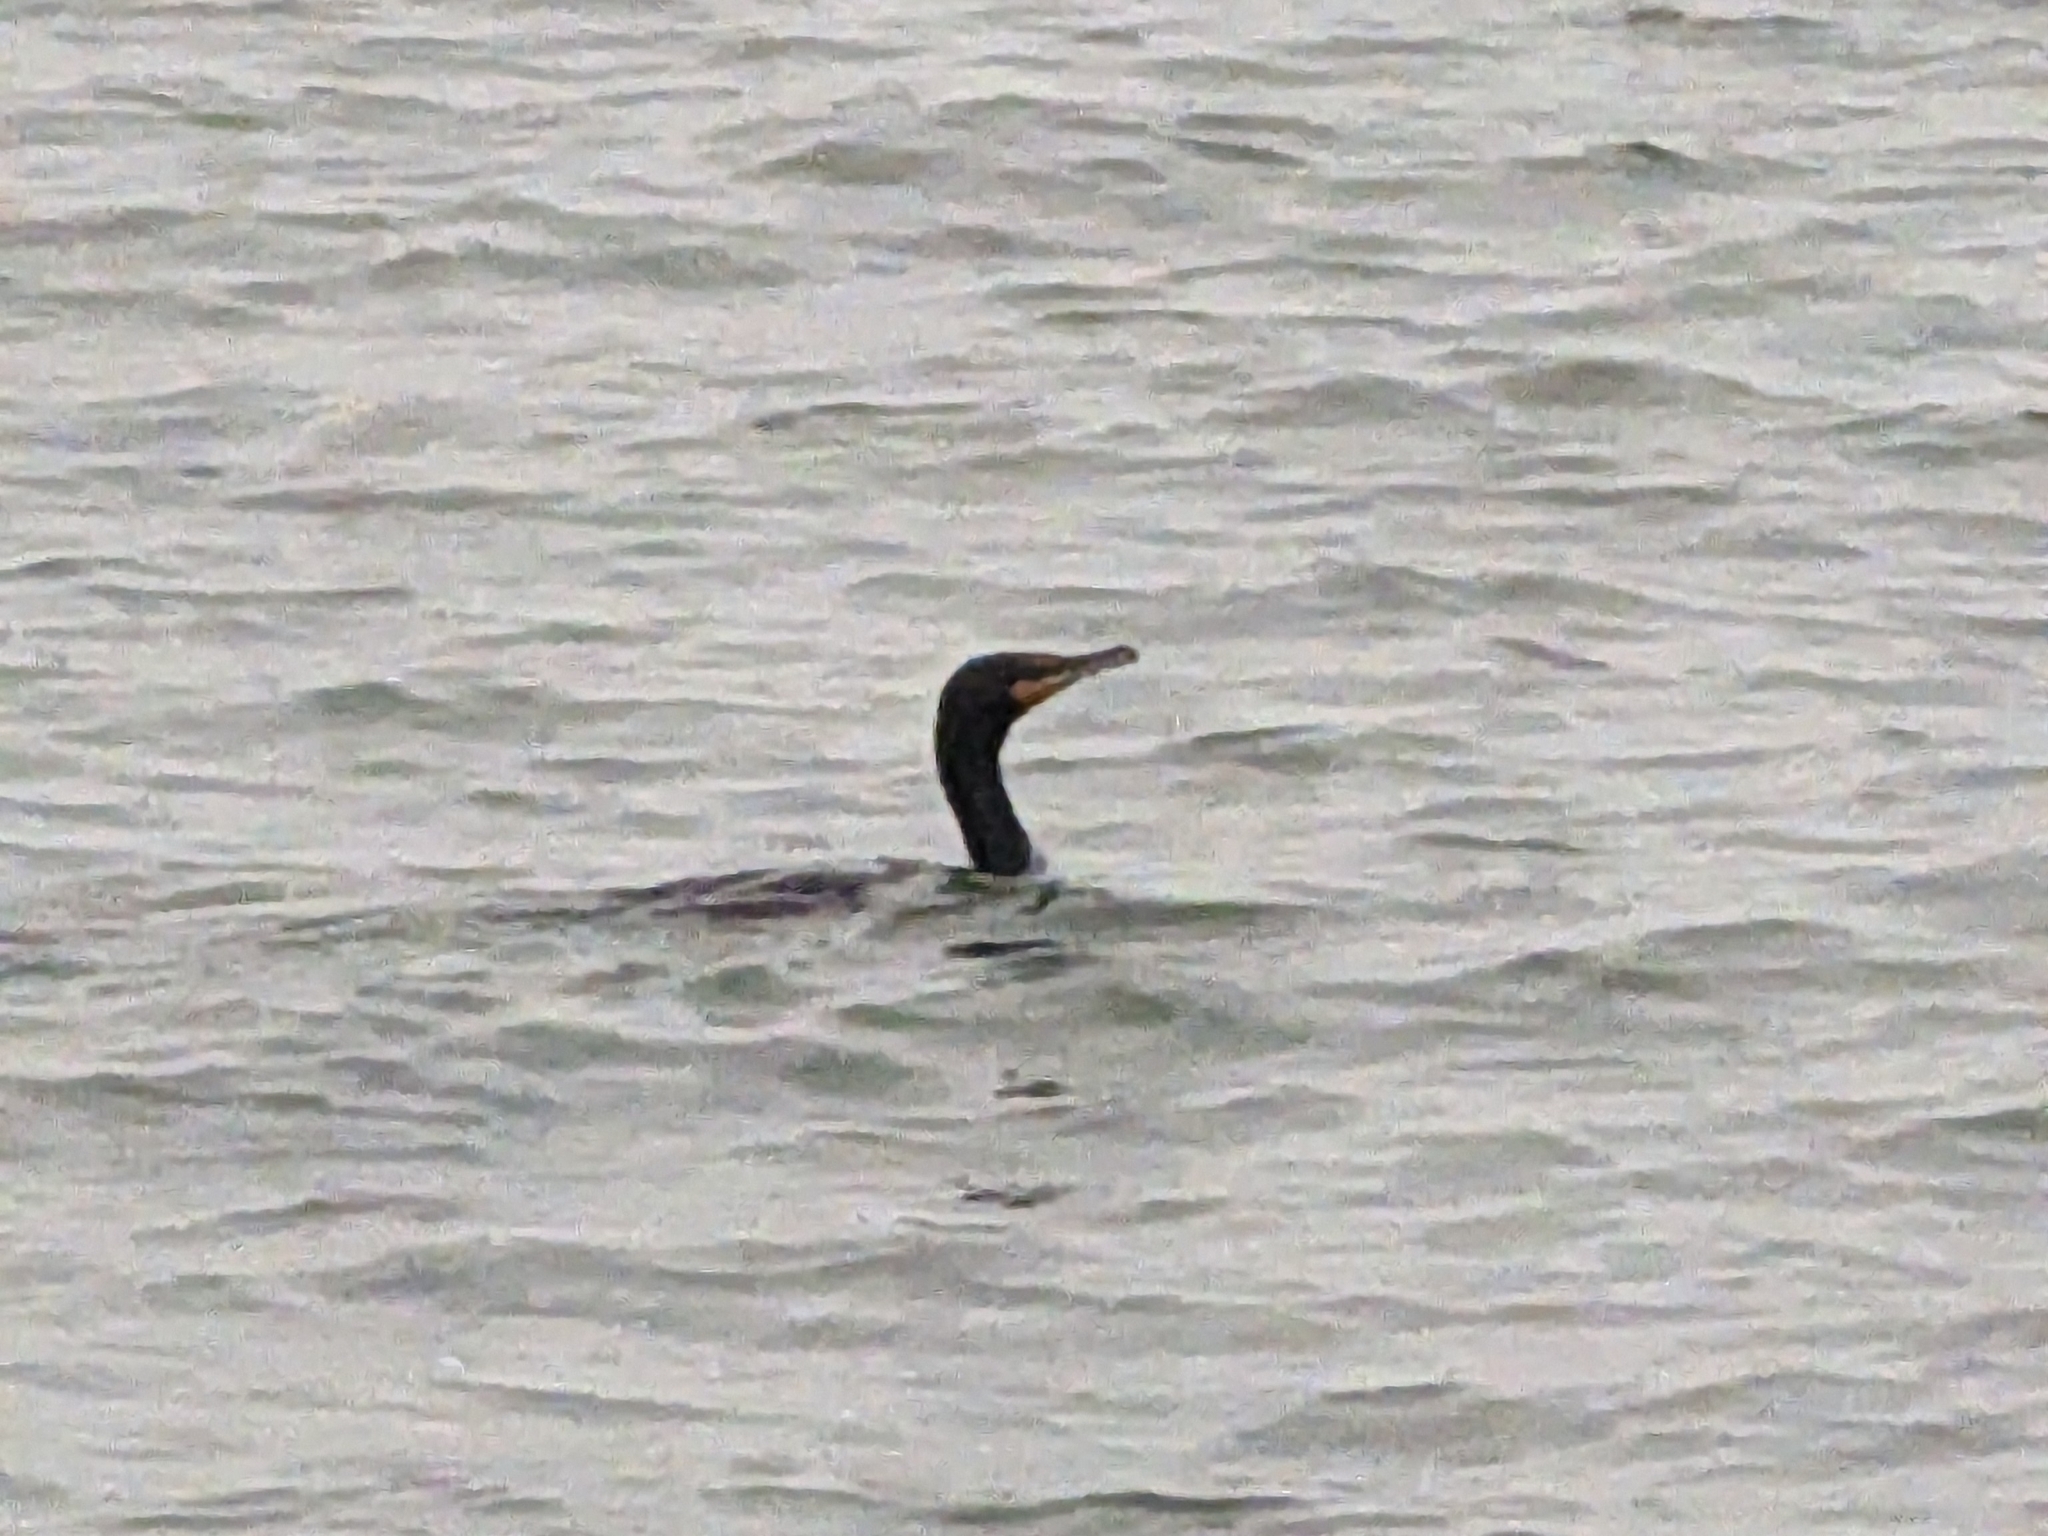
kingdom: Animalia
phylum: Chordata
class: Aves
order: Suliformes
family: Phalacrocoracidae
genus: Phalacrocorax
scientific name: Phalacrocorax auritus
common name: Double-crested cormorant
